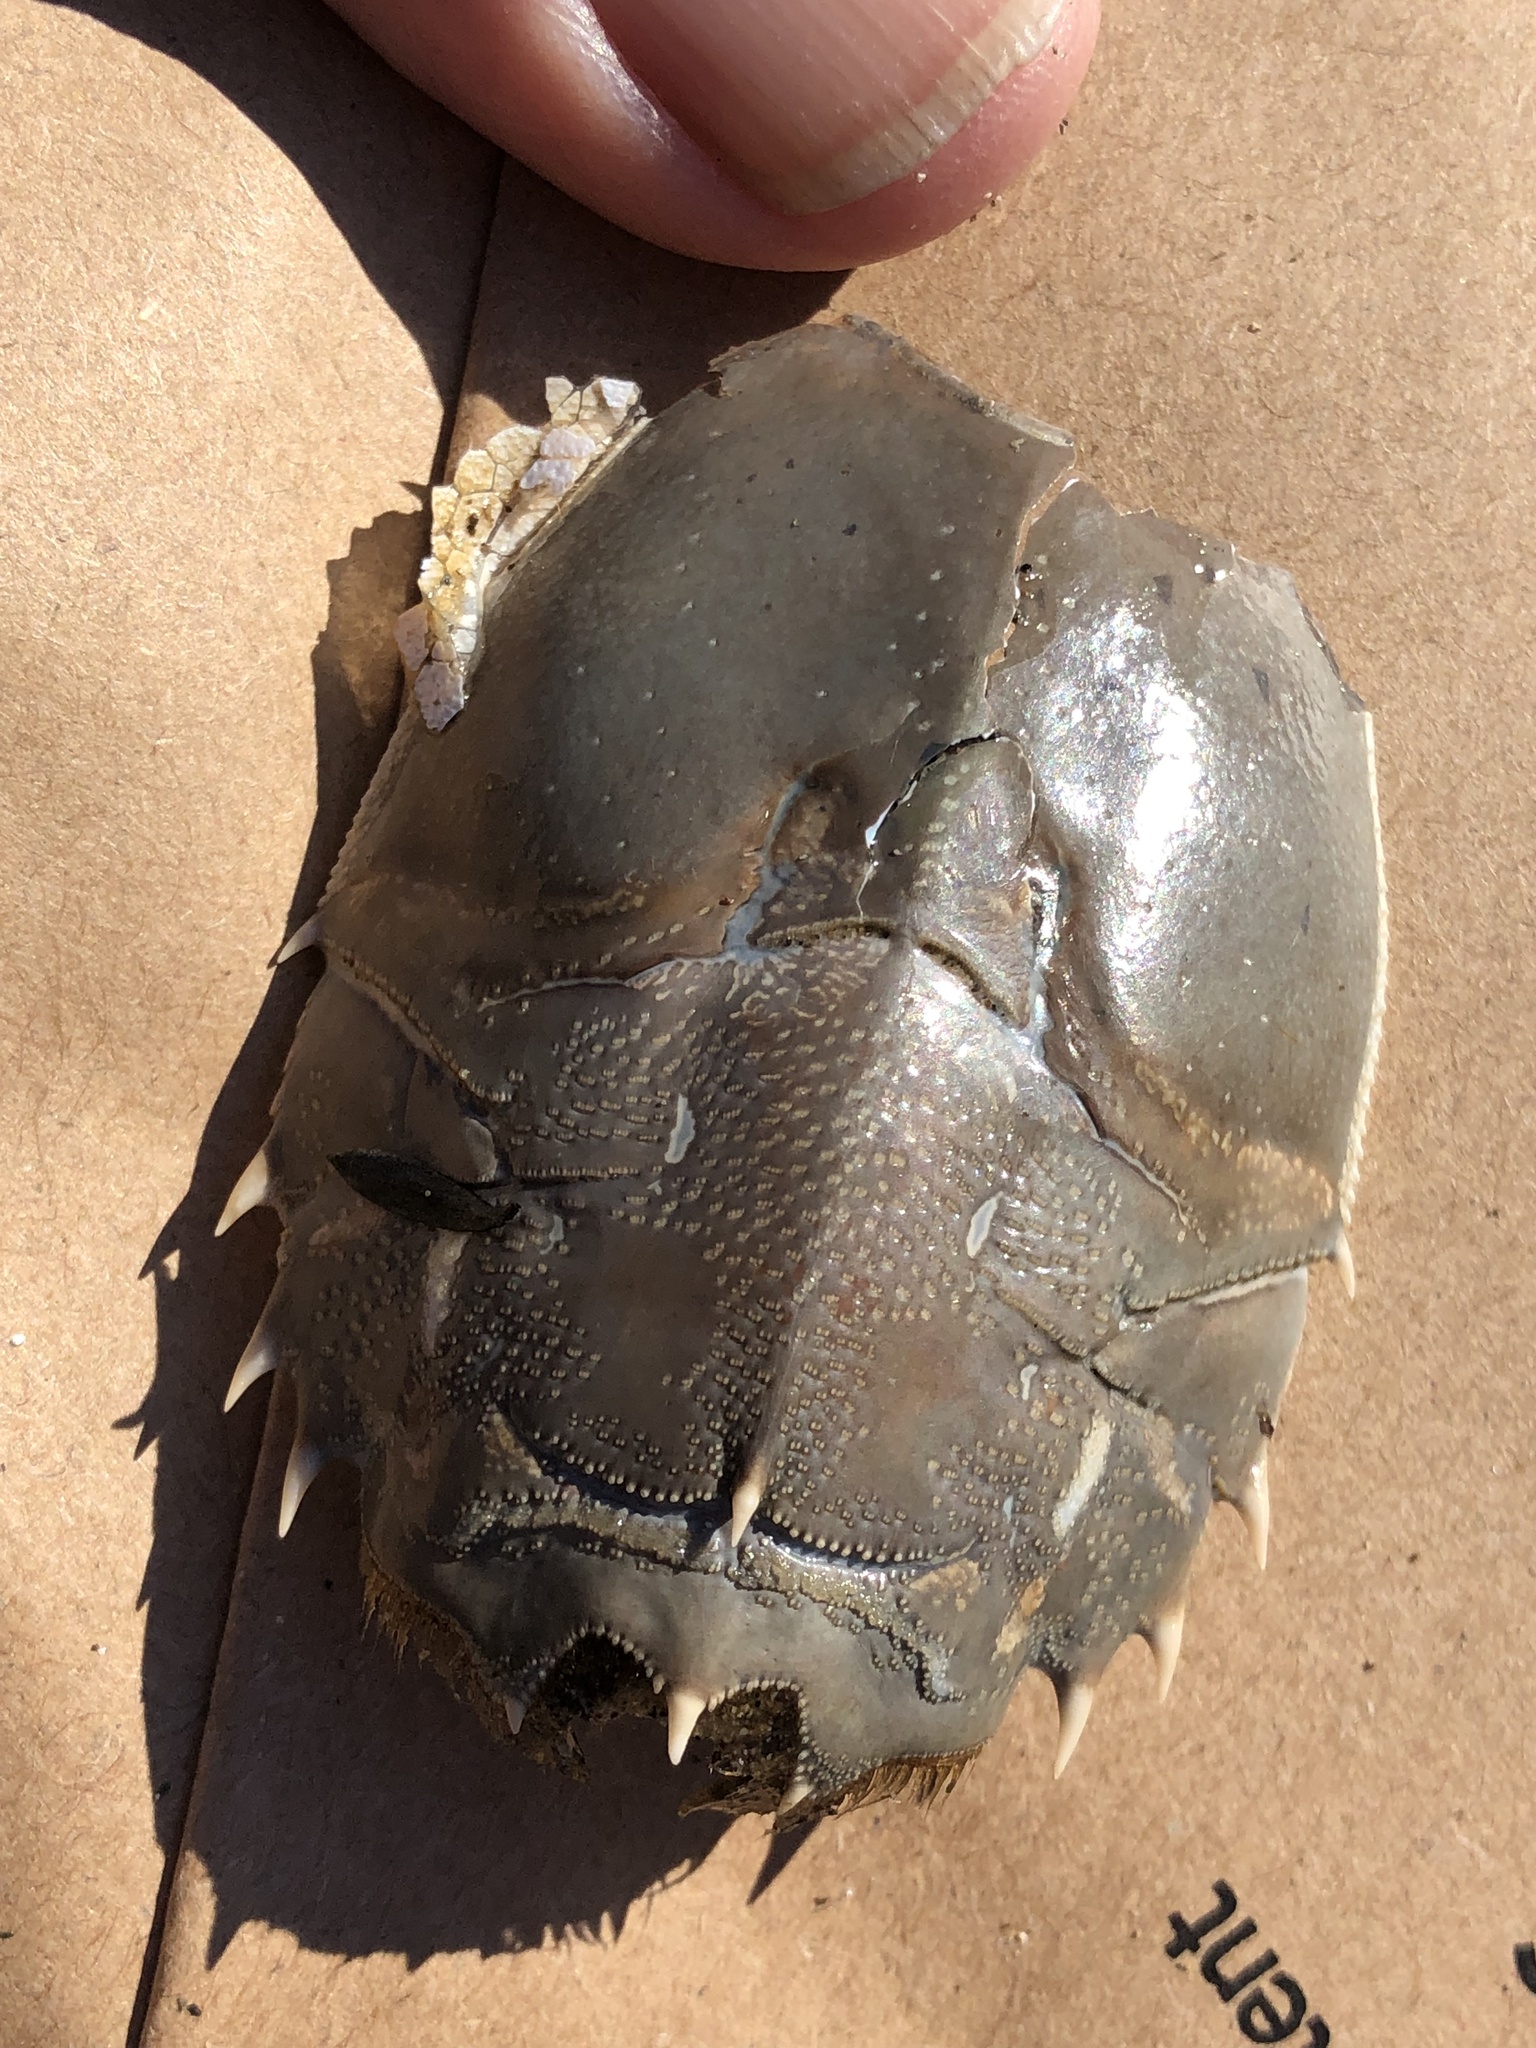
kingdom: Animalia
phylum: Arthropoda
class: Malacostraca
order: Decapoda
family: Blepharipodidae
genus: Blepharipoda
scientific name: Blepharipoda occidentalis
